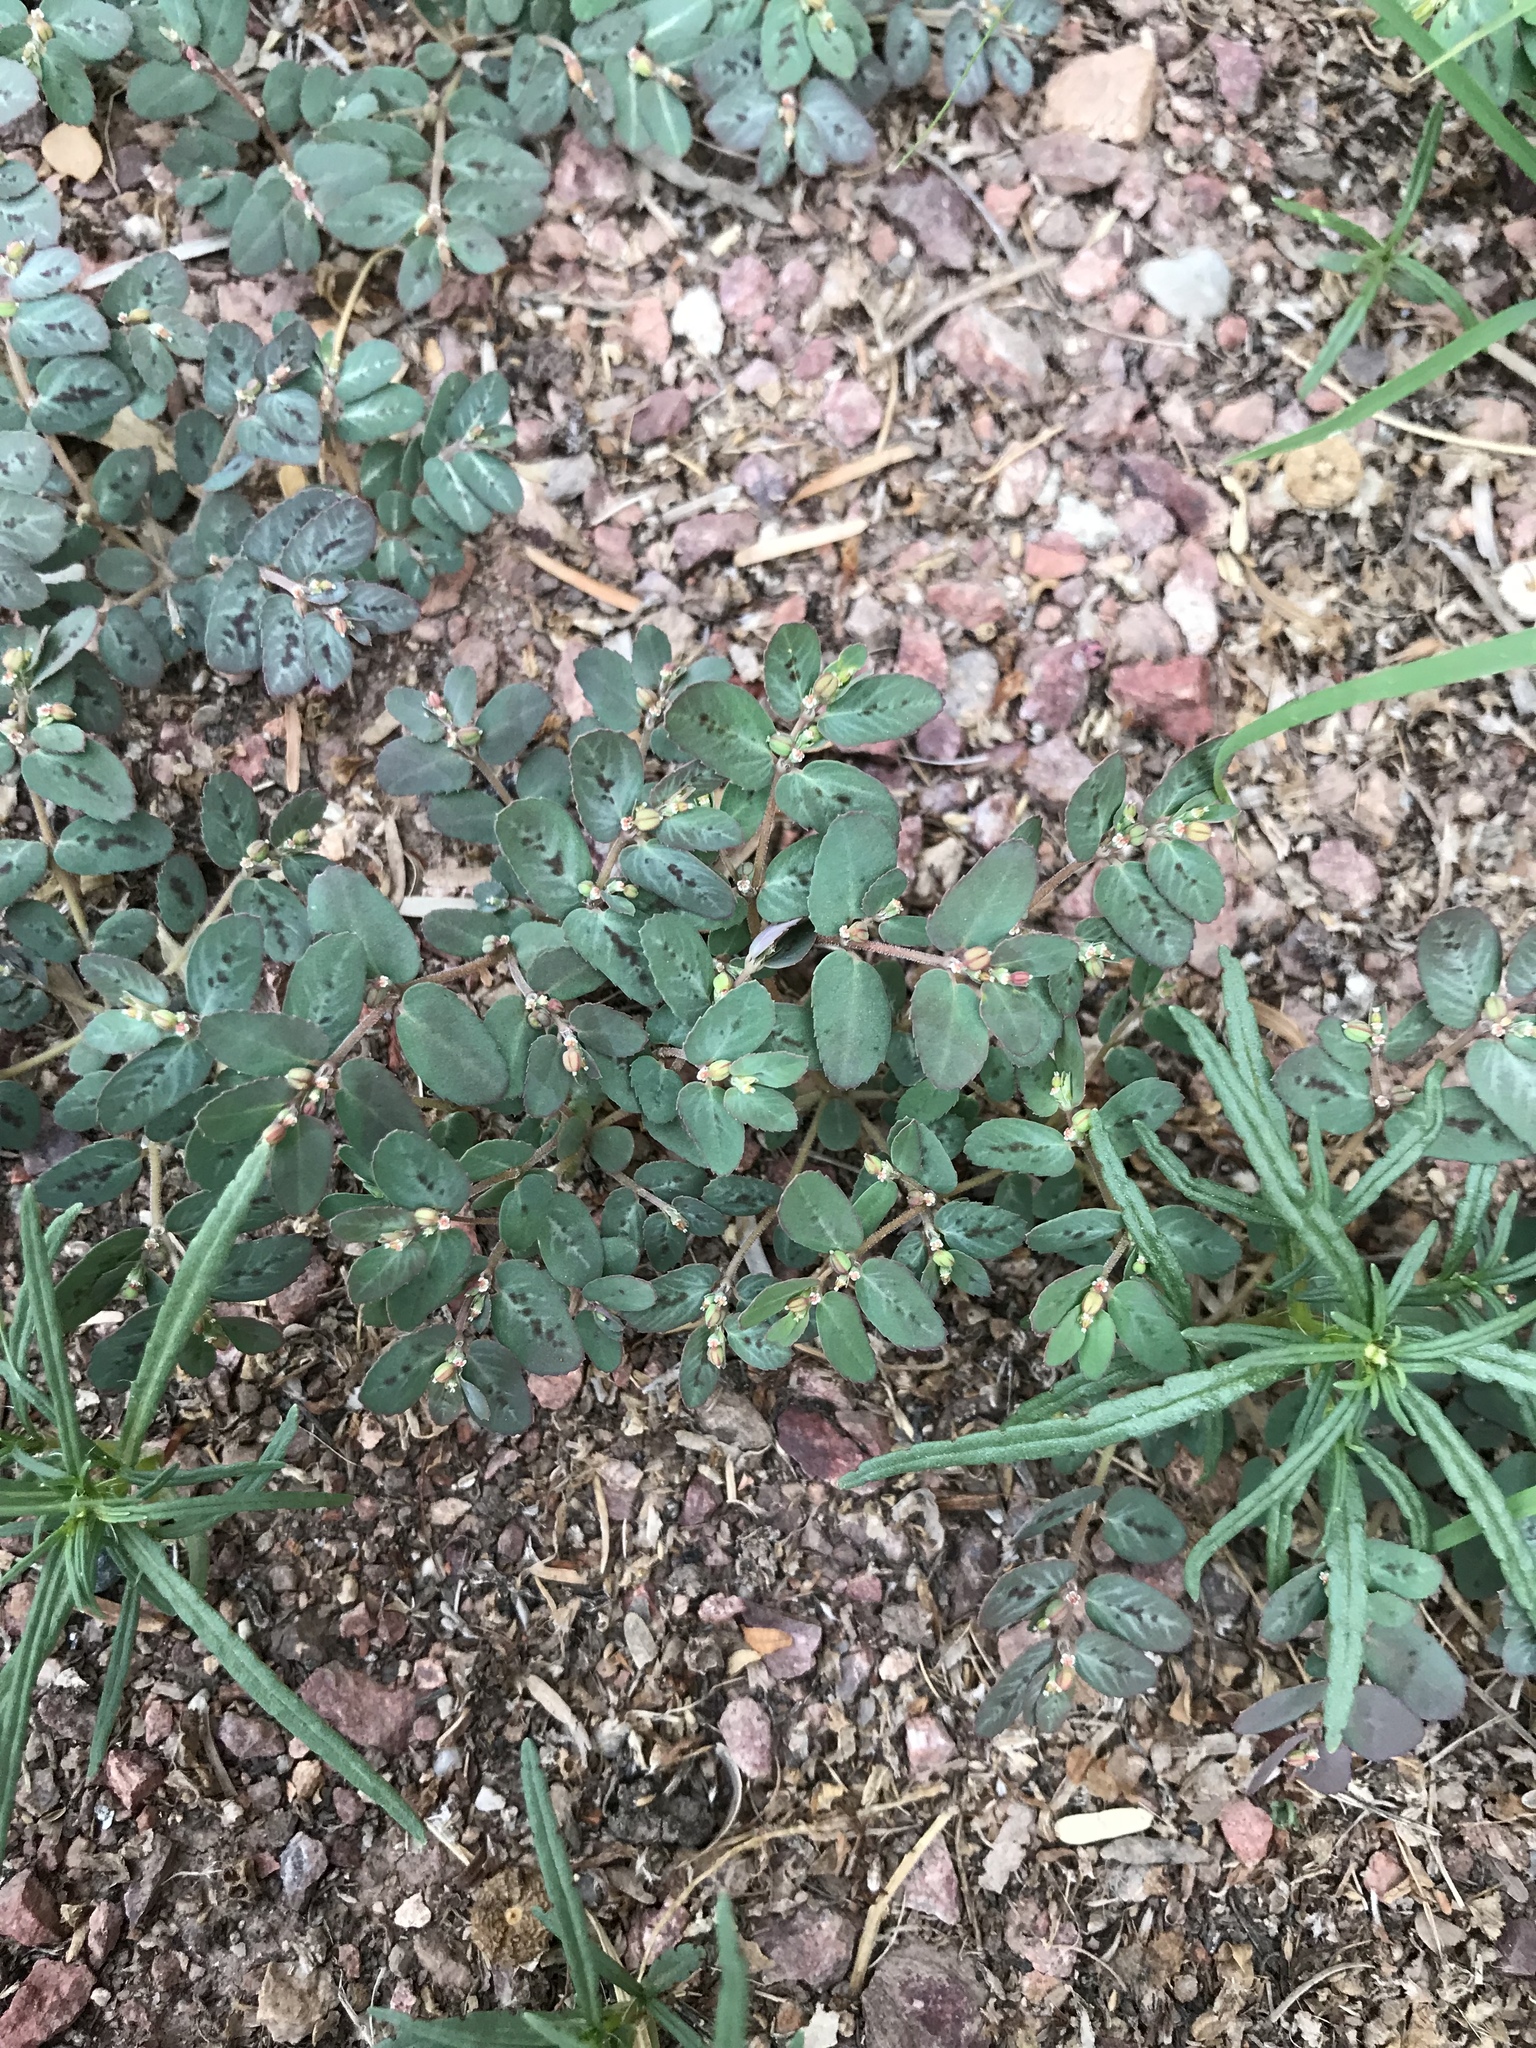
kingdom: Plantae
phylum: Tracheophyta
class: Magnoliopsida
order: Malpighiales
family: Euphorbiaceae
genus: Euphorbia
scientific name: Euphorbia abramsiana
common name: Abram's spurge
